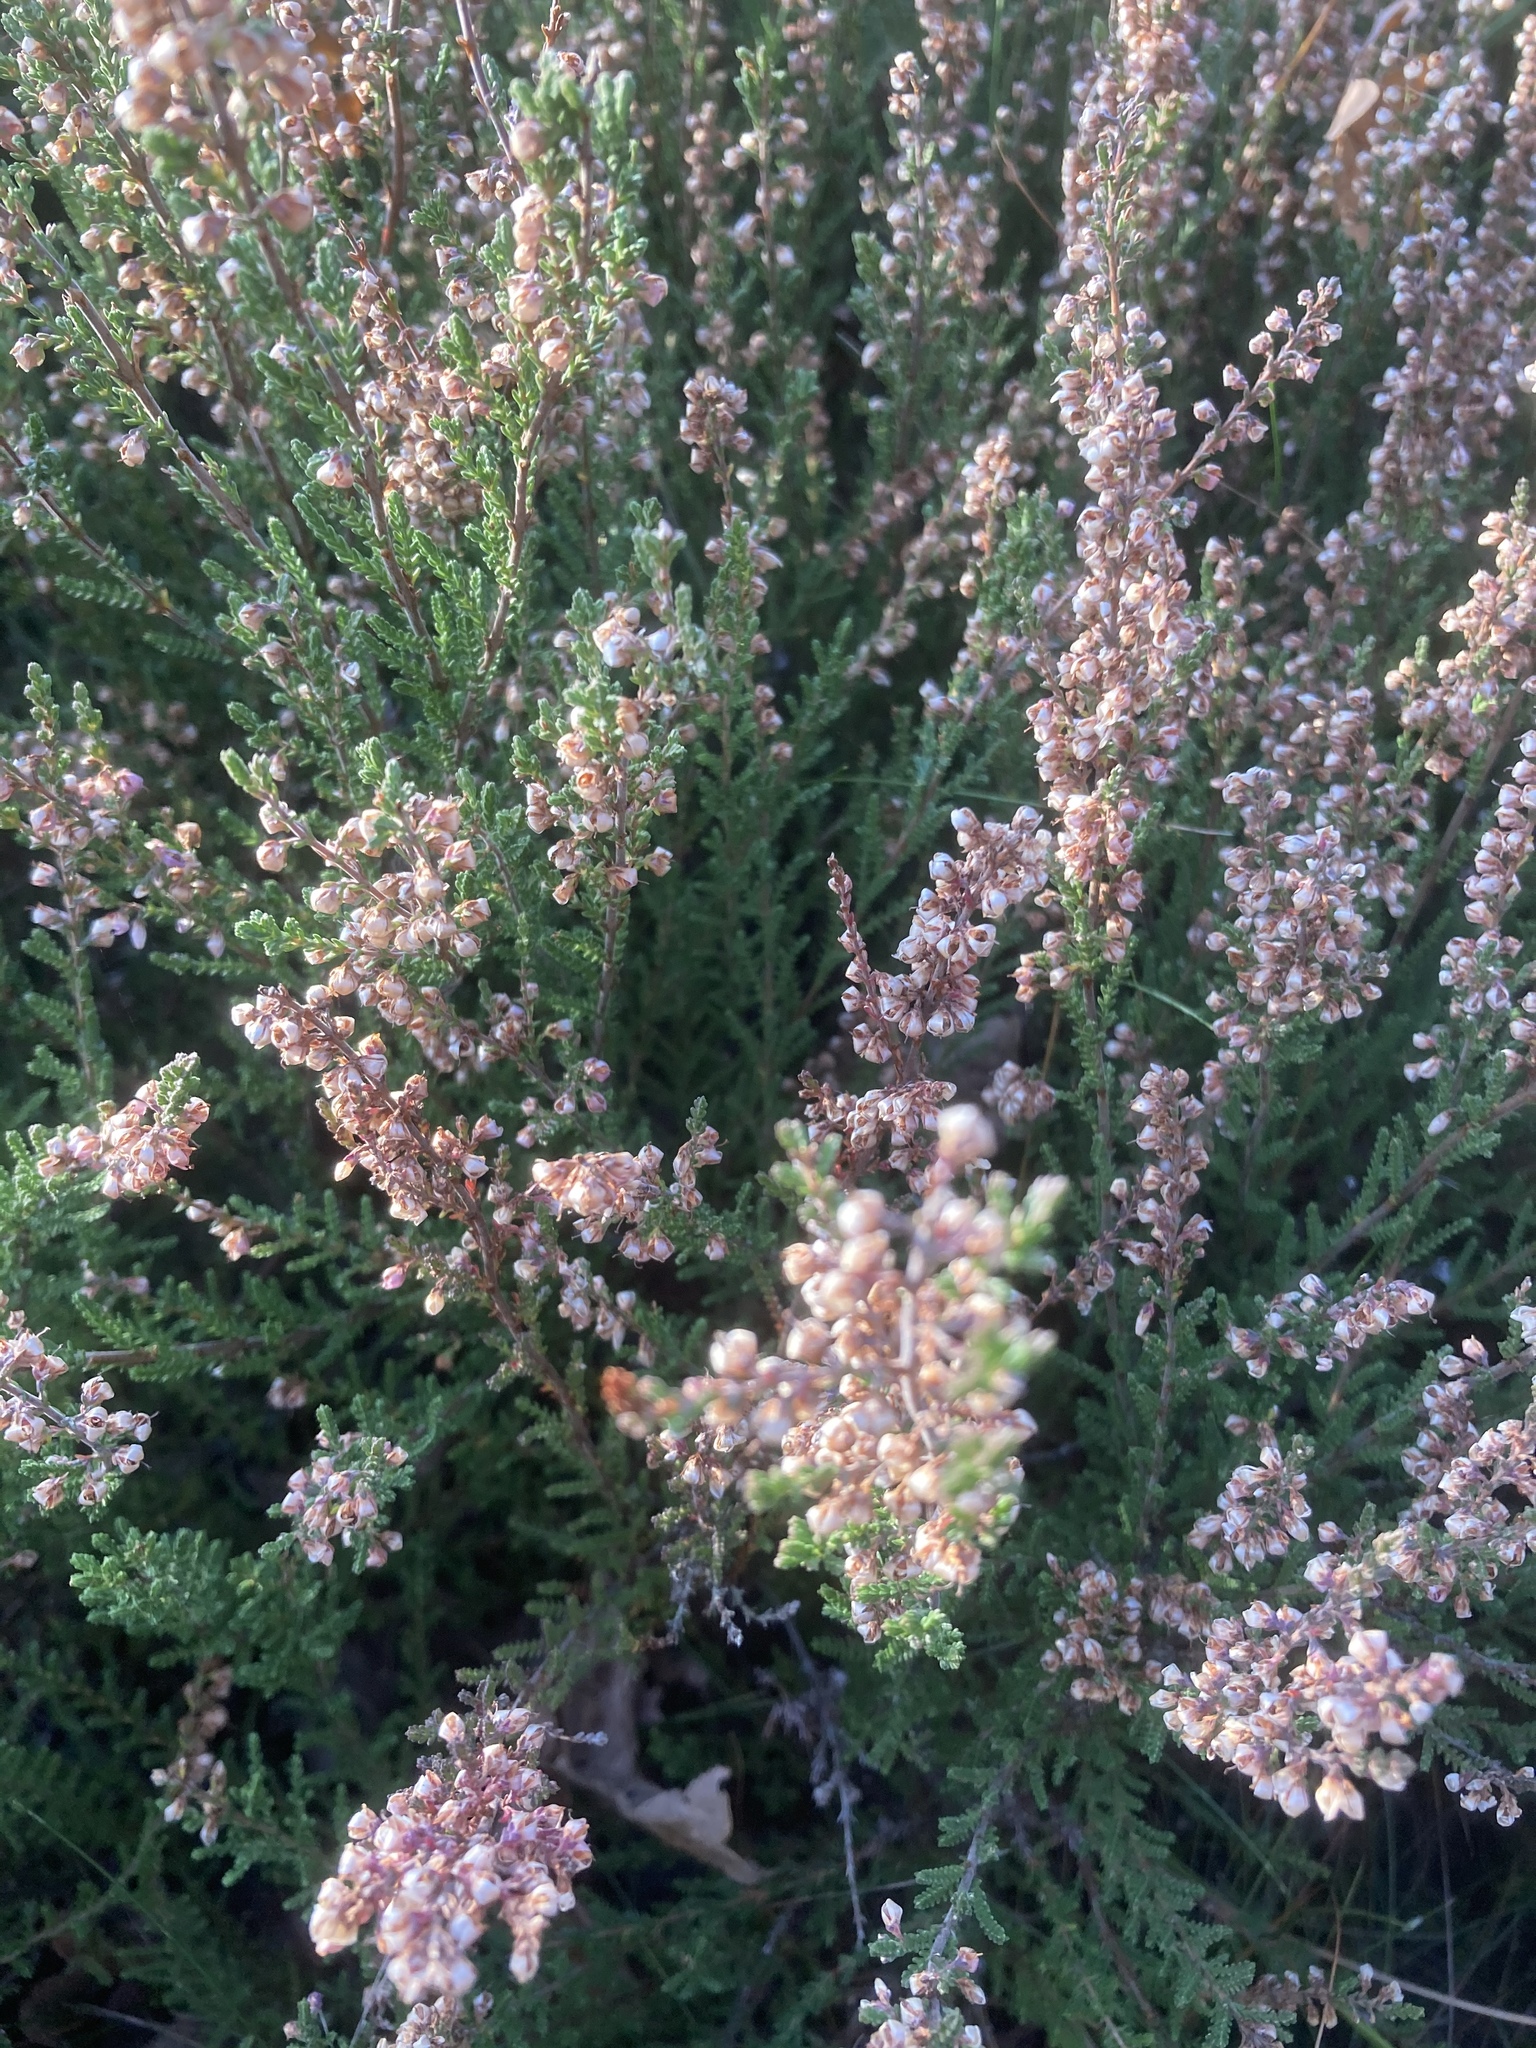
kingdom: Plantae
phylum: Tracheophyta
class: Magnoliopsida
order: Ericales
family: Ericaceae
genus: Calluna
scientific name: Calluna vulgaris
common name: Heather
